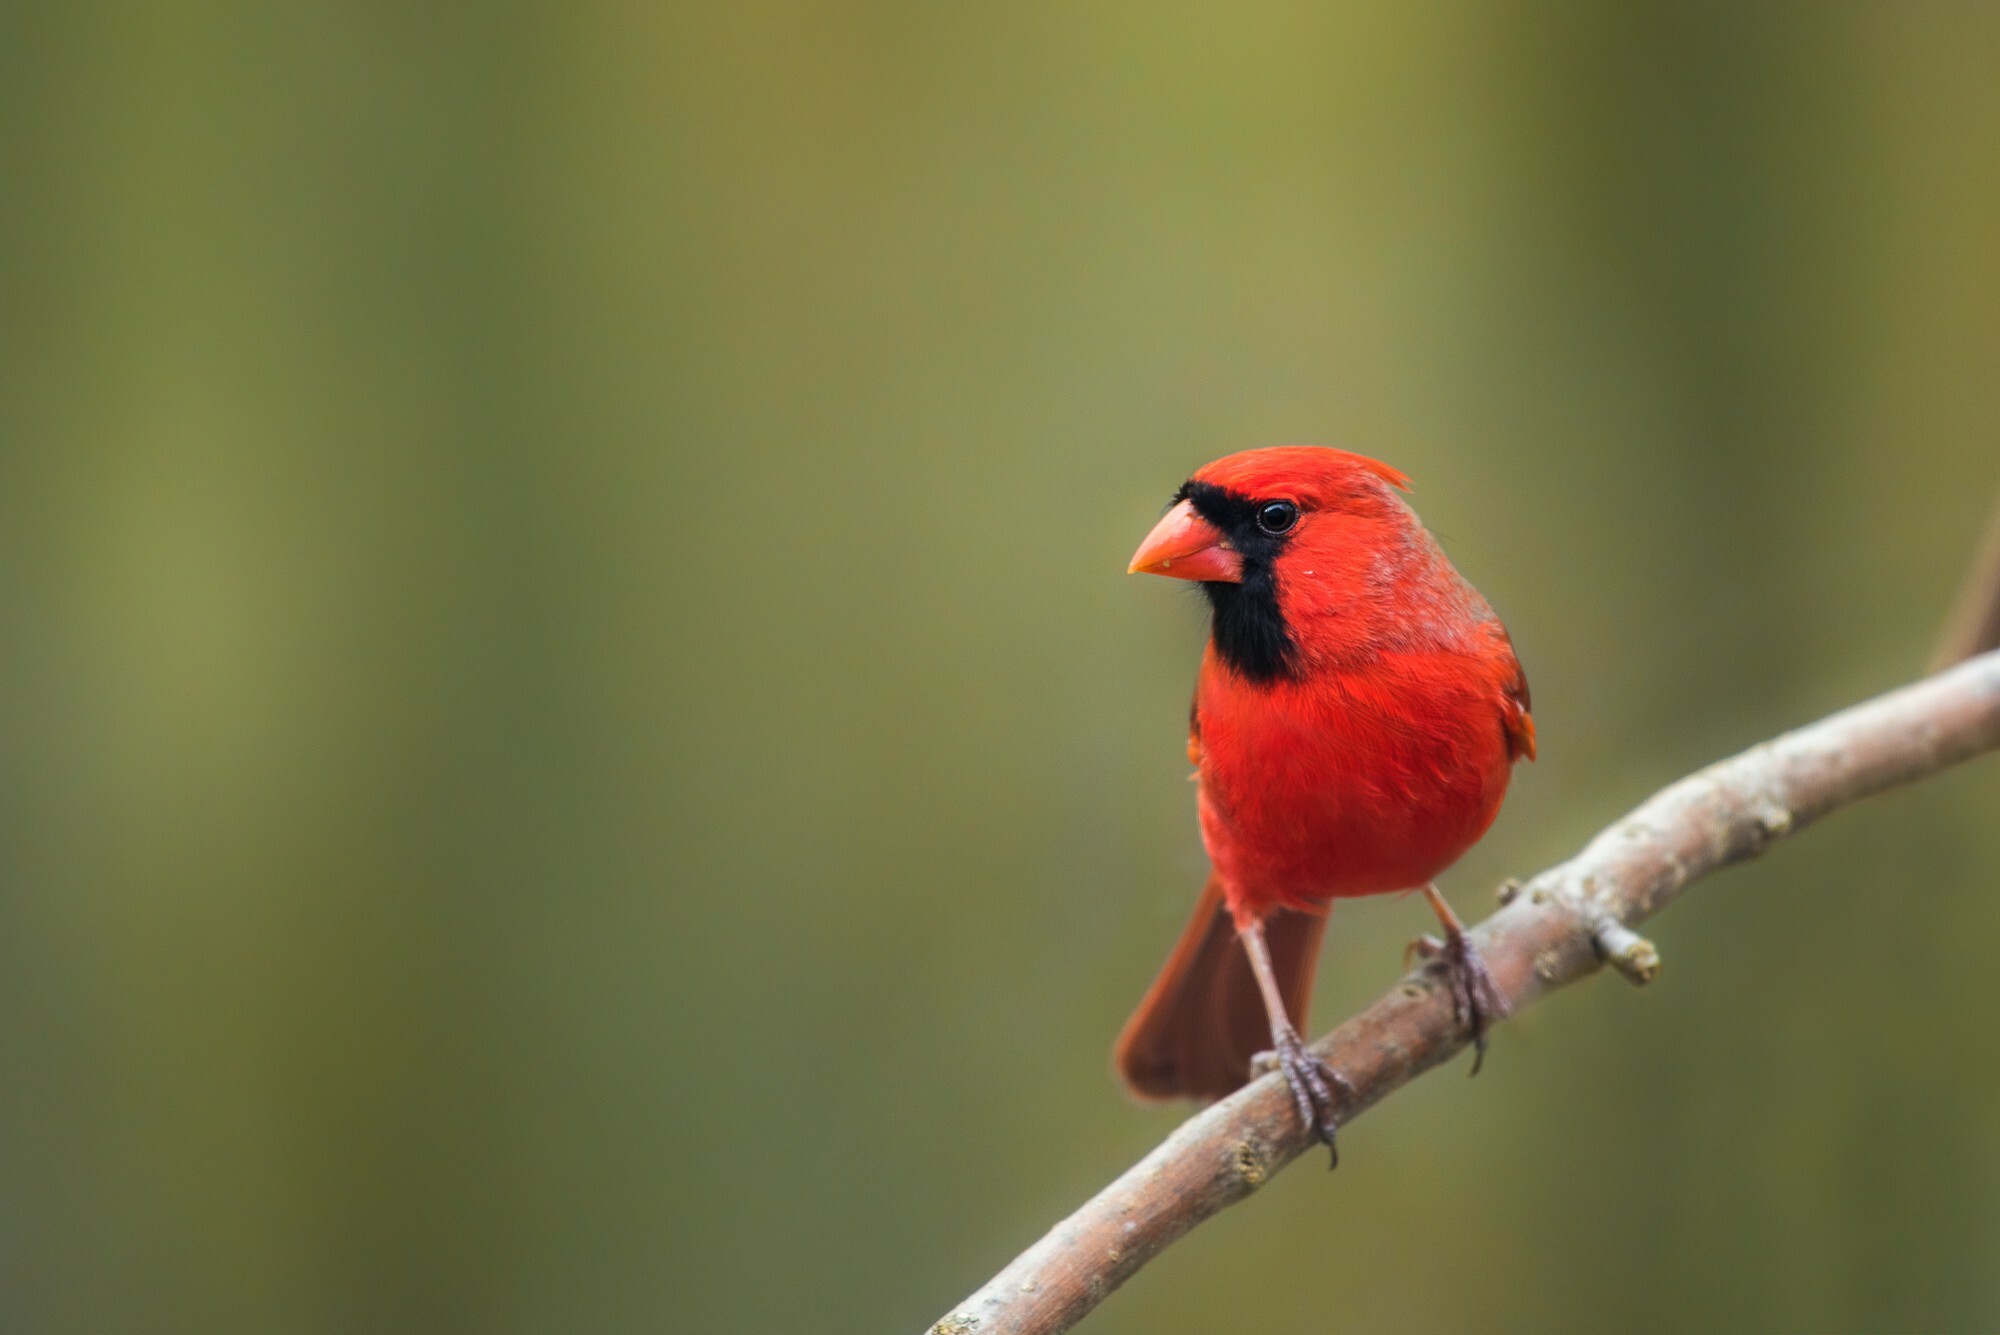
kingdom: Animalia
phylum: Chordata
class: Aves
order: Passeriformes
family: Cardinalidae
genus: Cardinalis
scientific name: Cardinalis cardinalis
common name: Northern cardinal
